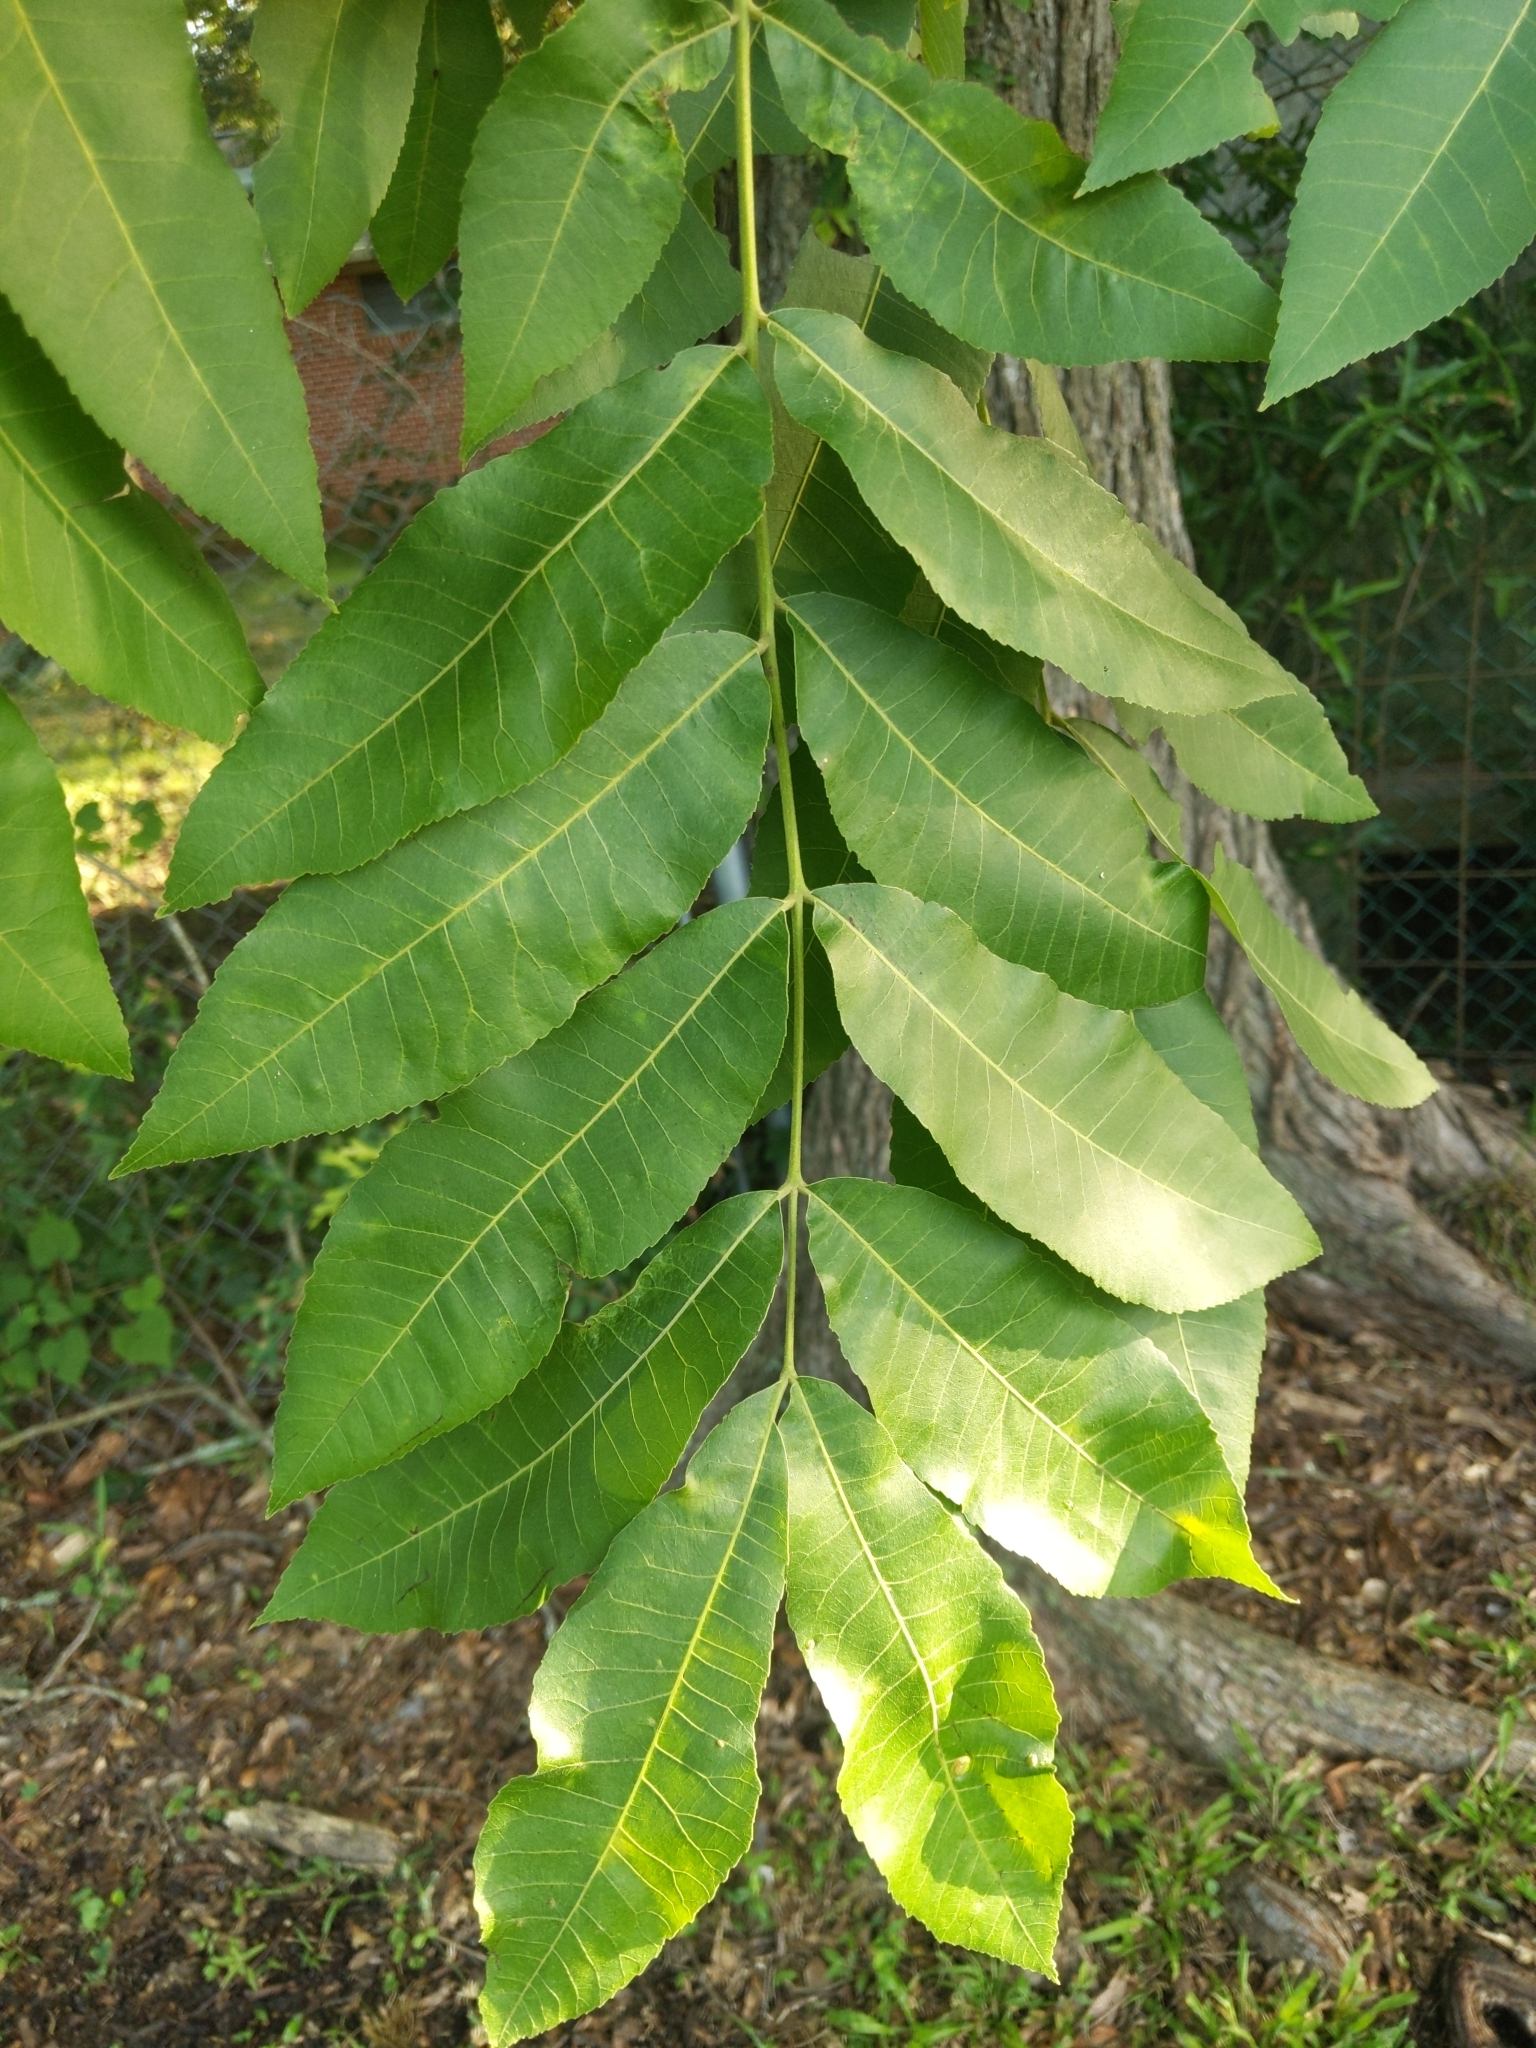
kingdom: Plantae
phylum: Tracheophyta
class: Magnoliopsida
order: Fagales
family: Juglandaceae
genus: Carya
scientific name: Carya illinoinensis
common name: Pecan
